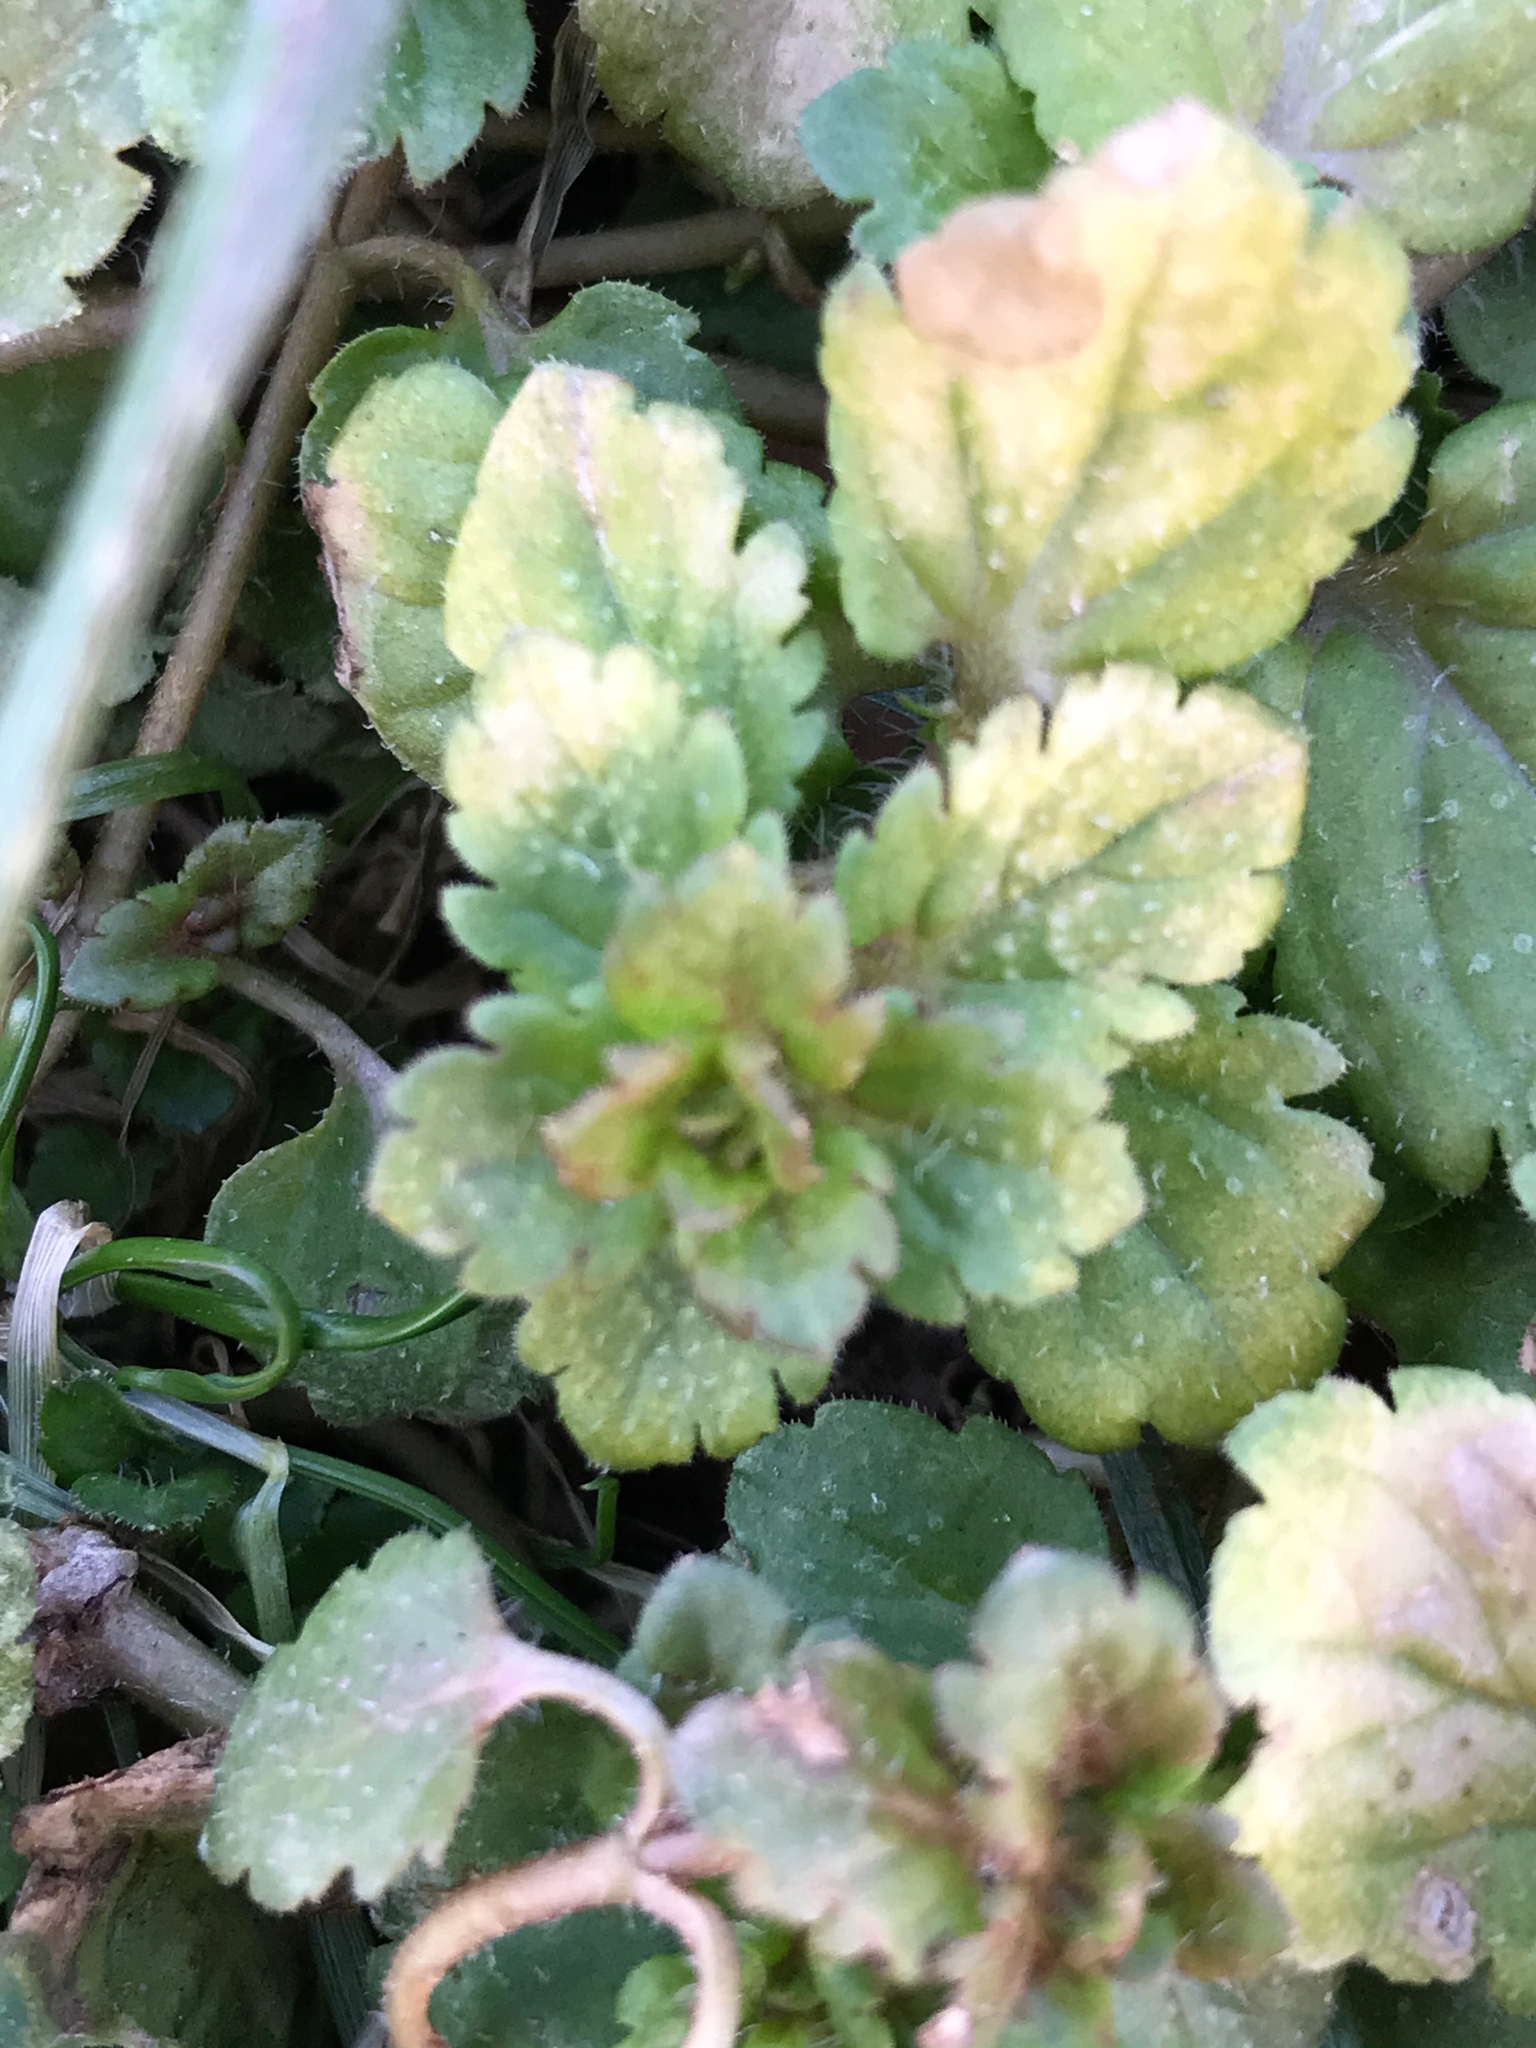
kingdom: Plantae
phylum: Tracheophyta
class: Magnoliopsida
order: Lamiales
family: Plantaginaceae
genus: Veronica
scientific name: Veronica persica
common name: Common field-speedwell
